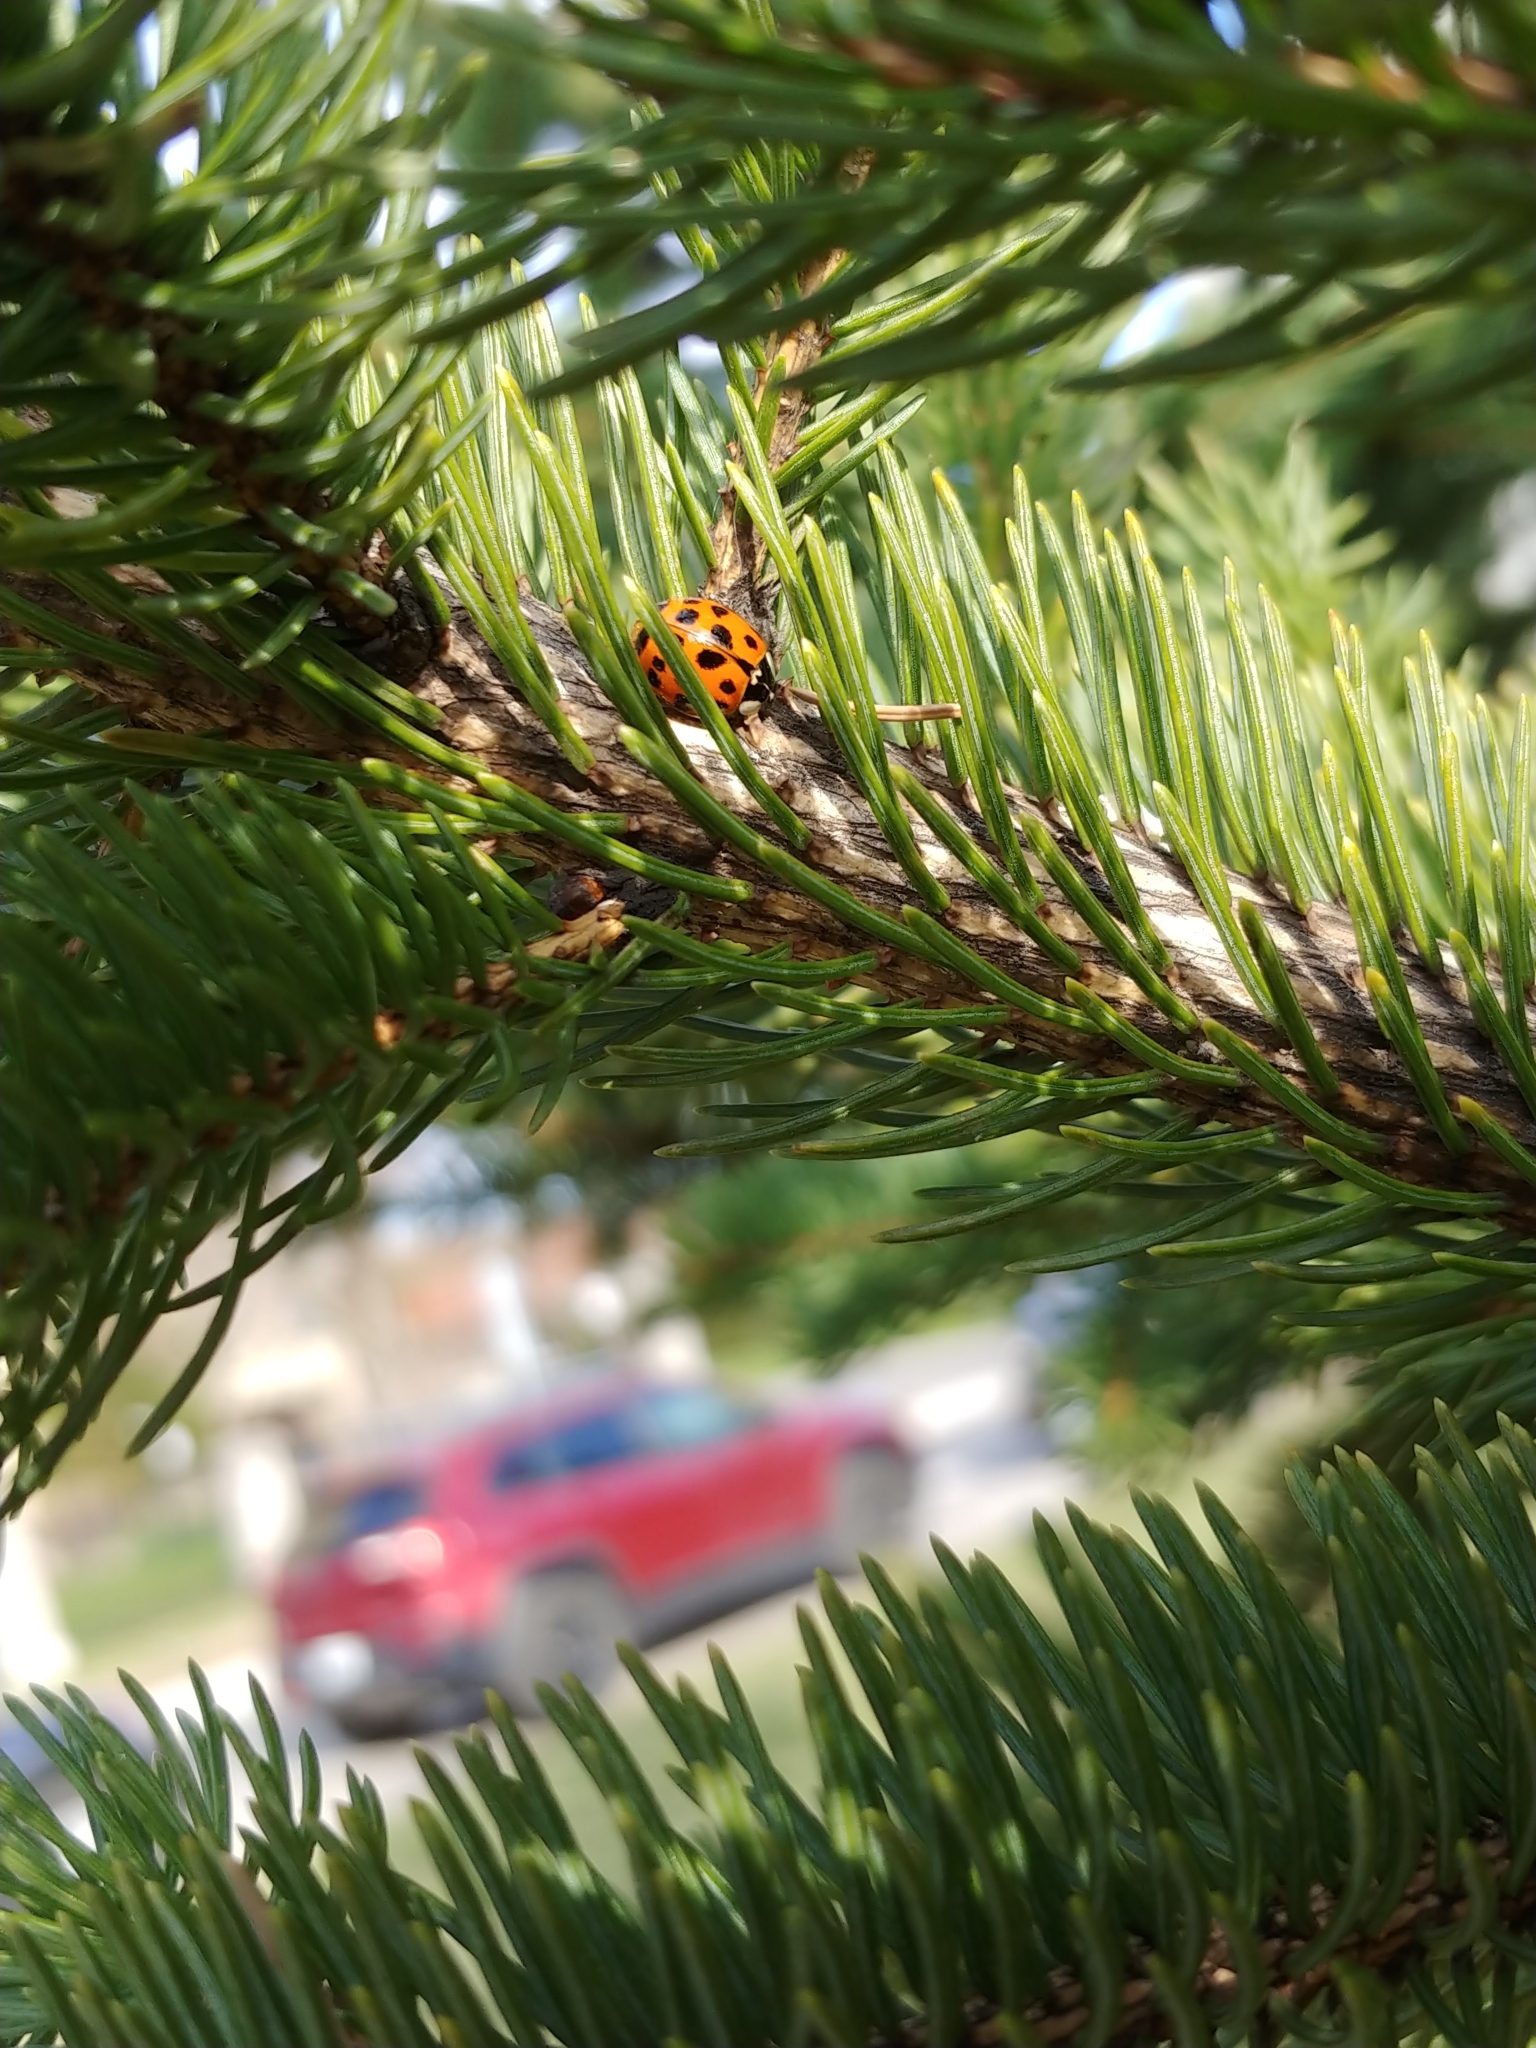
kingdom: Animalia
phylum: Arthropoda
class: Insecta
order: Coleoptera
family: Coccinellidae
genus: Harmonia
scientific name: Harmonia axyridis
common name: Harlequin ladybird
